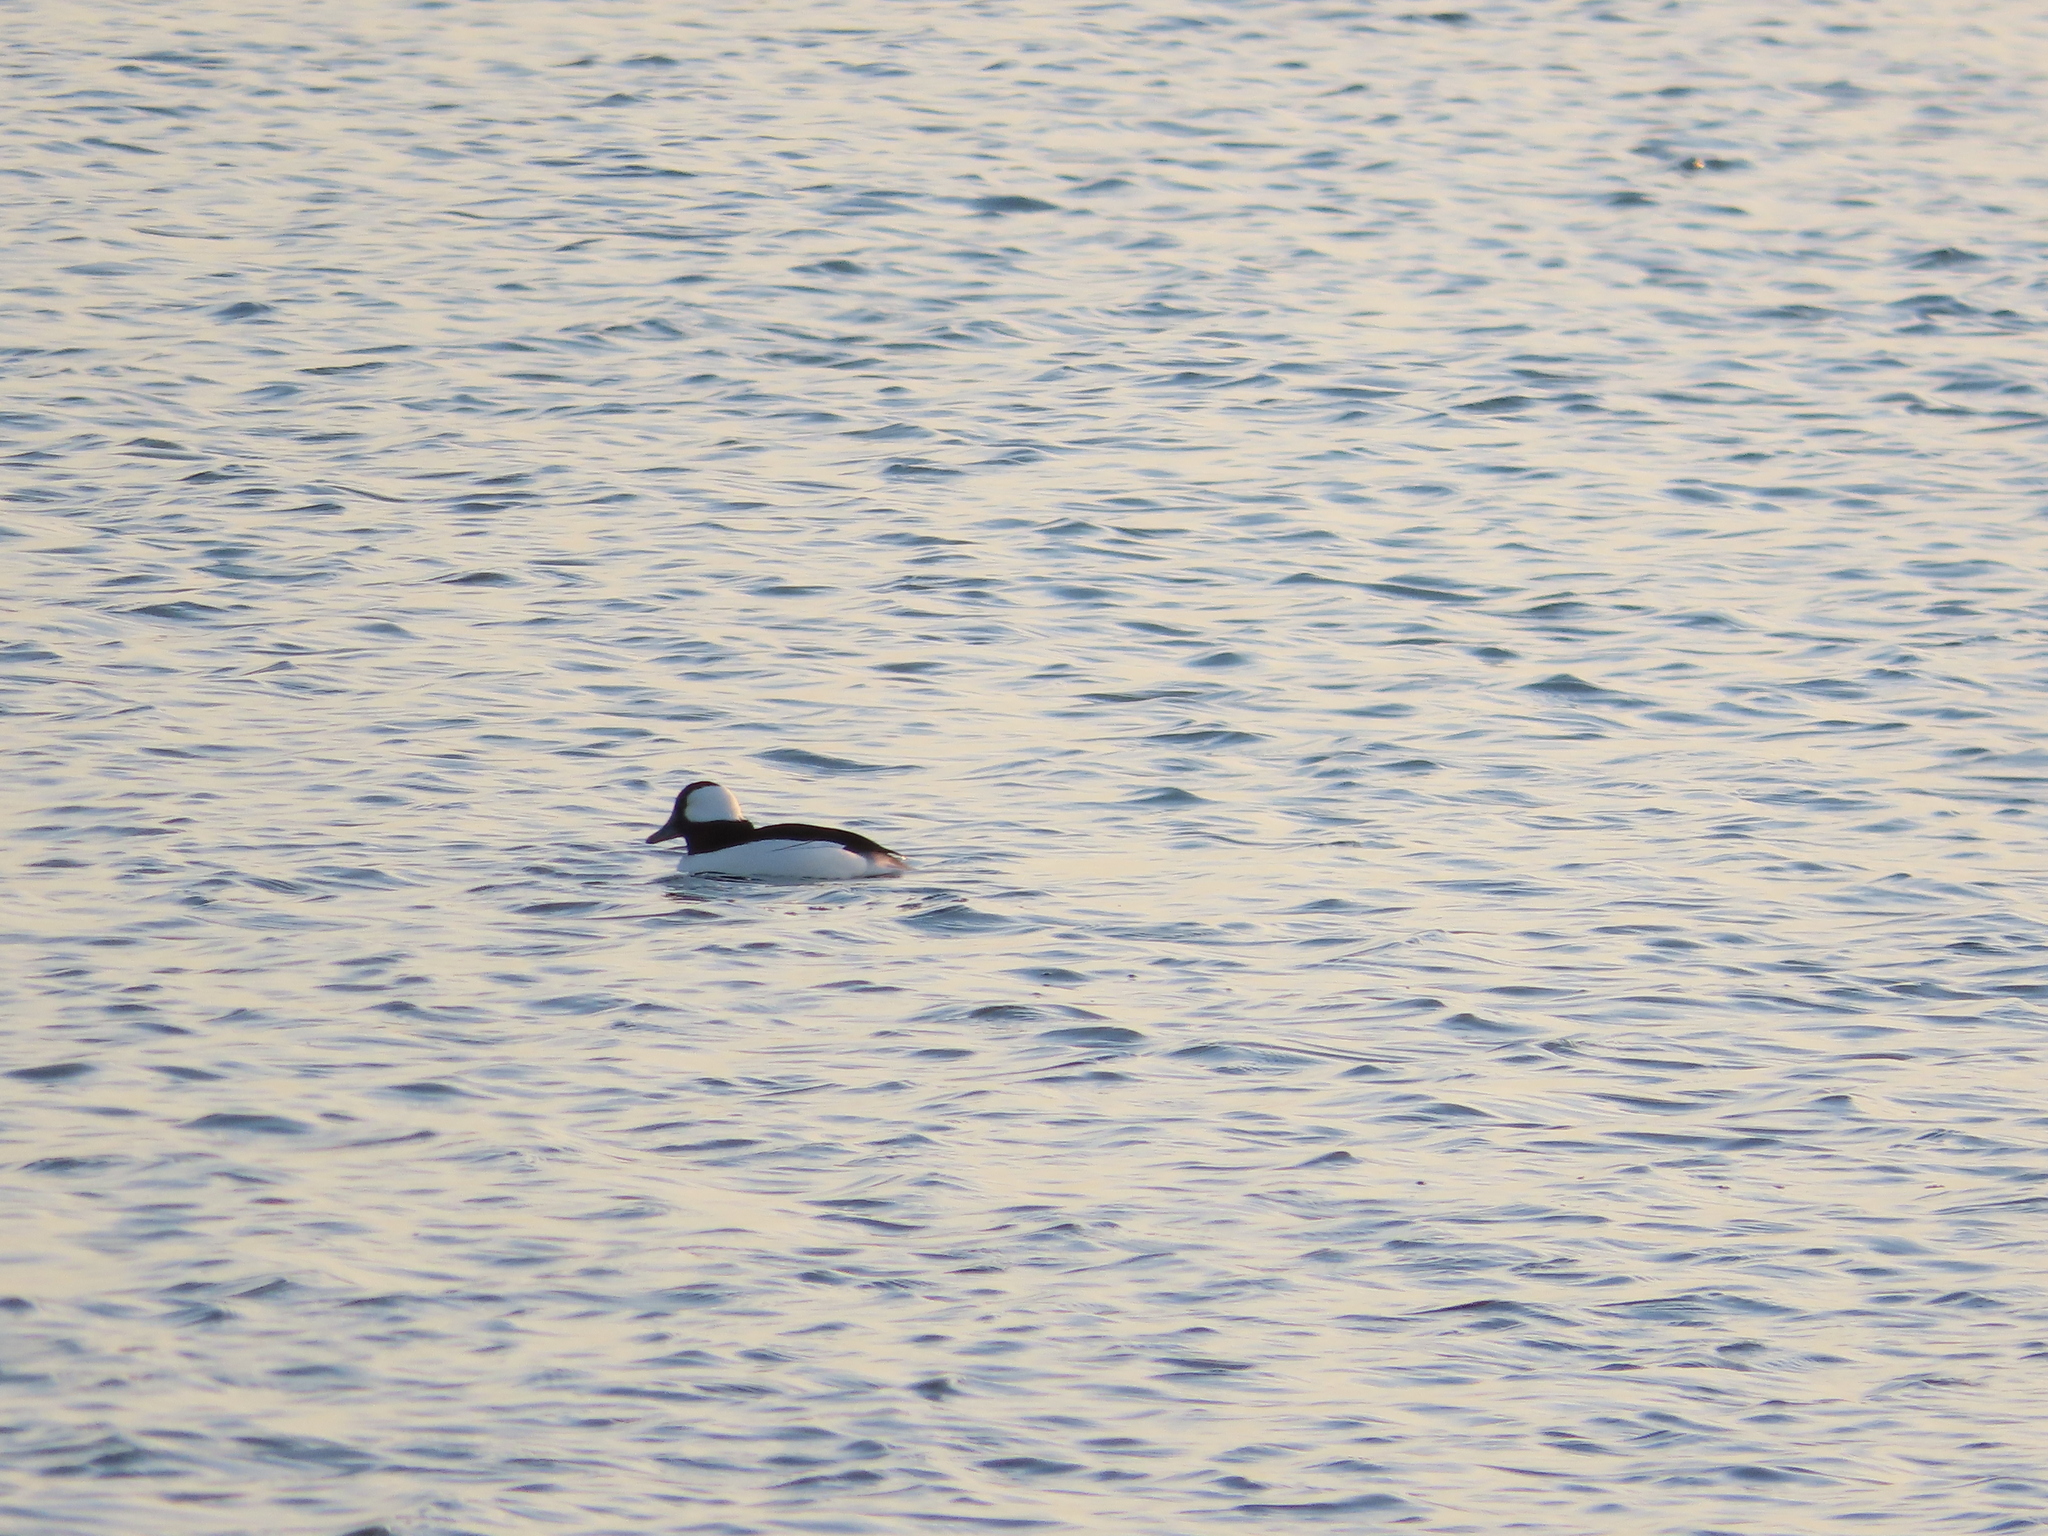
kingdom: Animalia
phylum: Chordata
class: Aves
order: Anseriformes
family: Anatidae
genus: Bucephala
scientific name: Bucephala albeola
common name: Bufflehead
